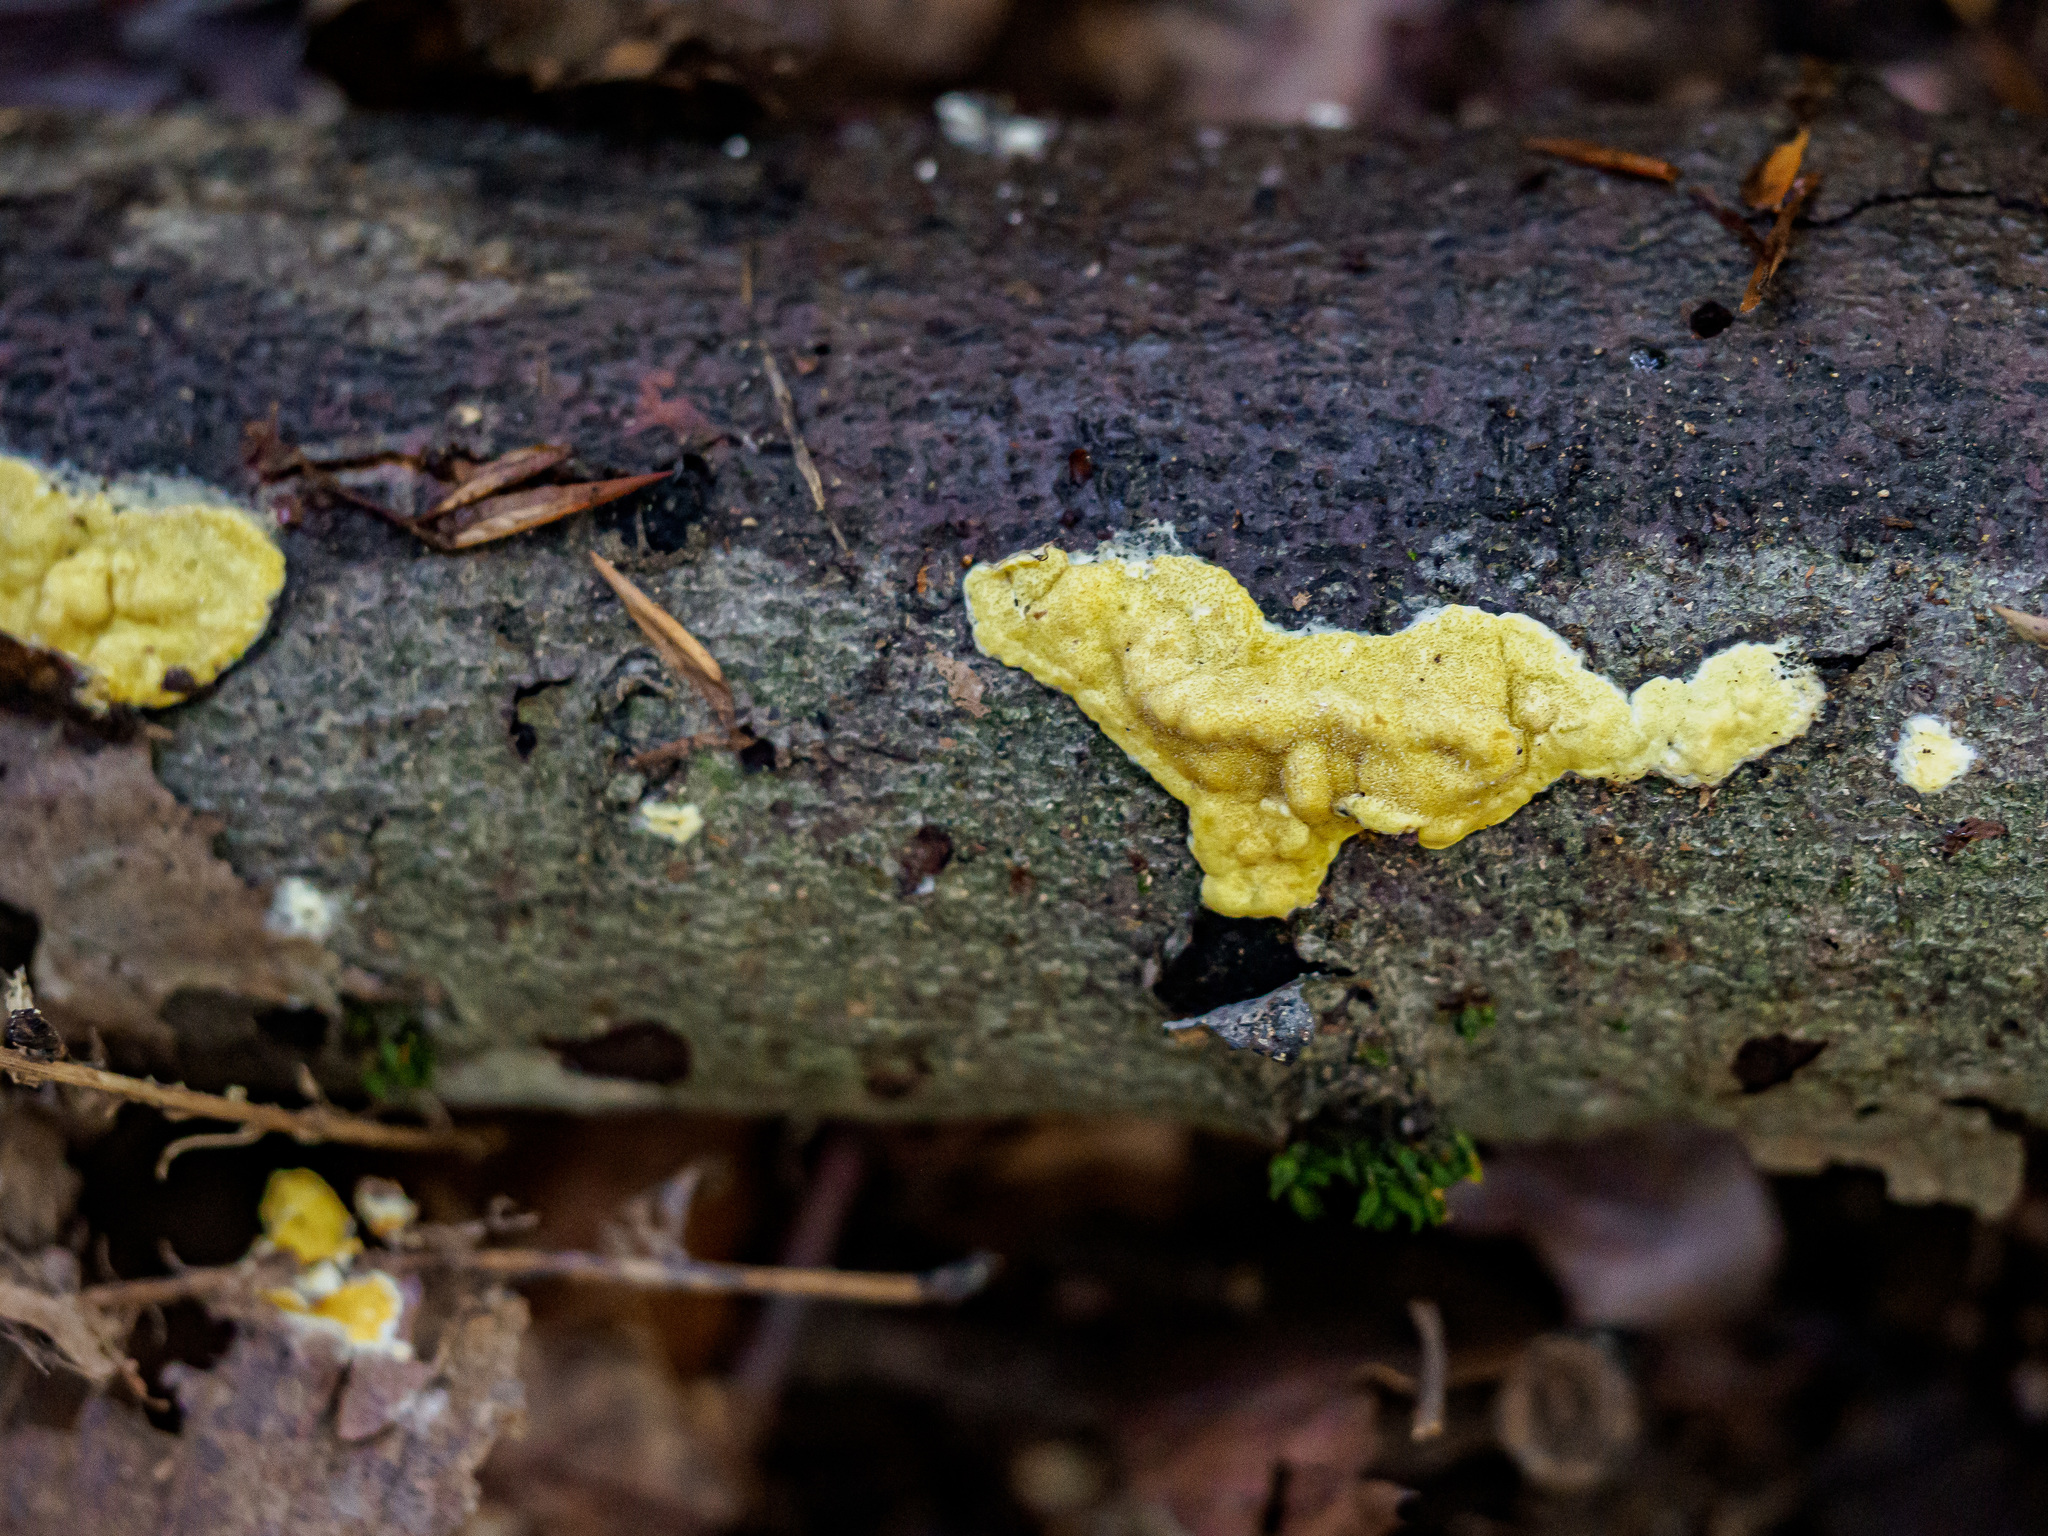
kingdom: Fungi
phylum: Ascomycota
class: Sordariomycetes
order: Hypocreales
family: Hypocreaceae
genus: Trichoderma
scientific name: Trichoderma sulphureum
